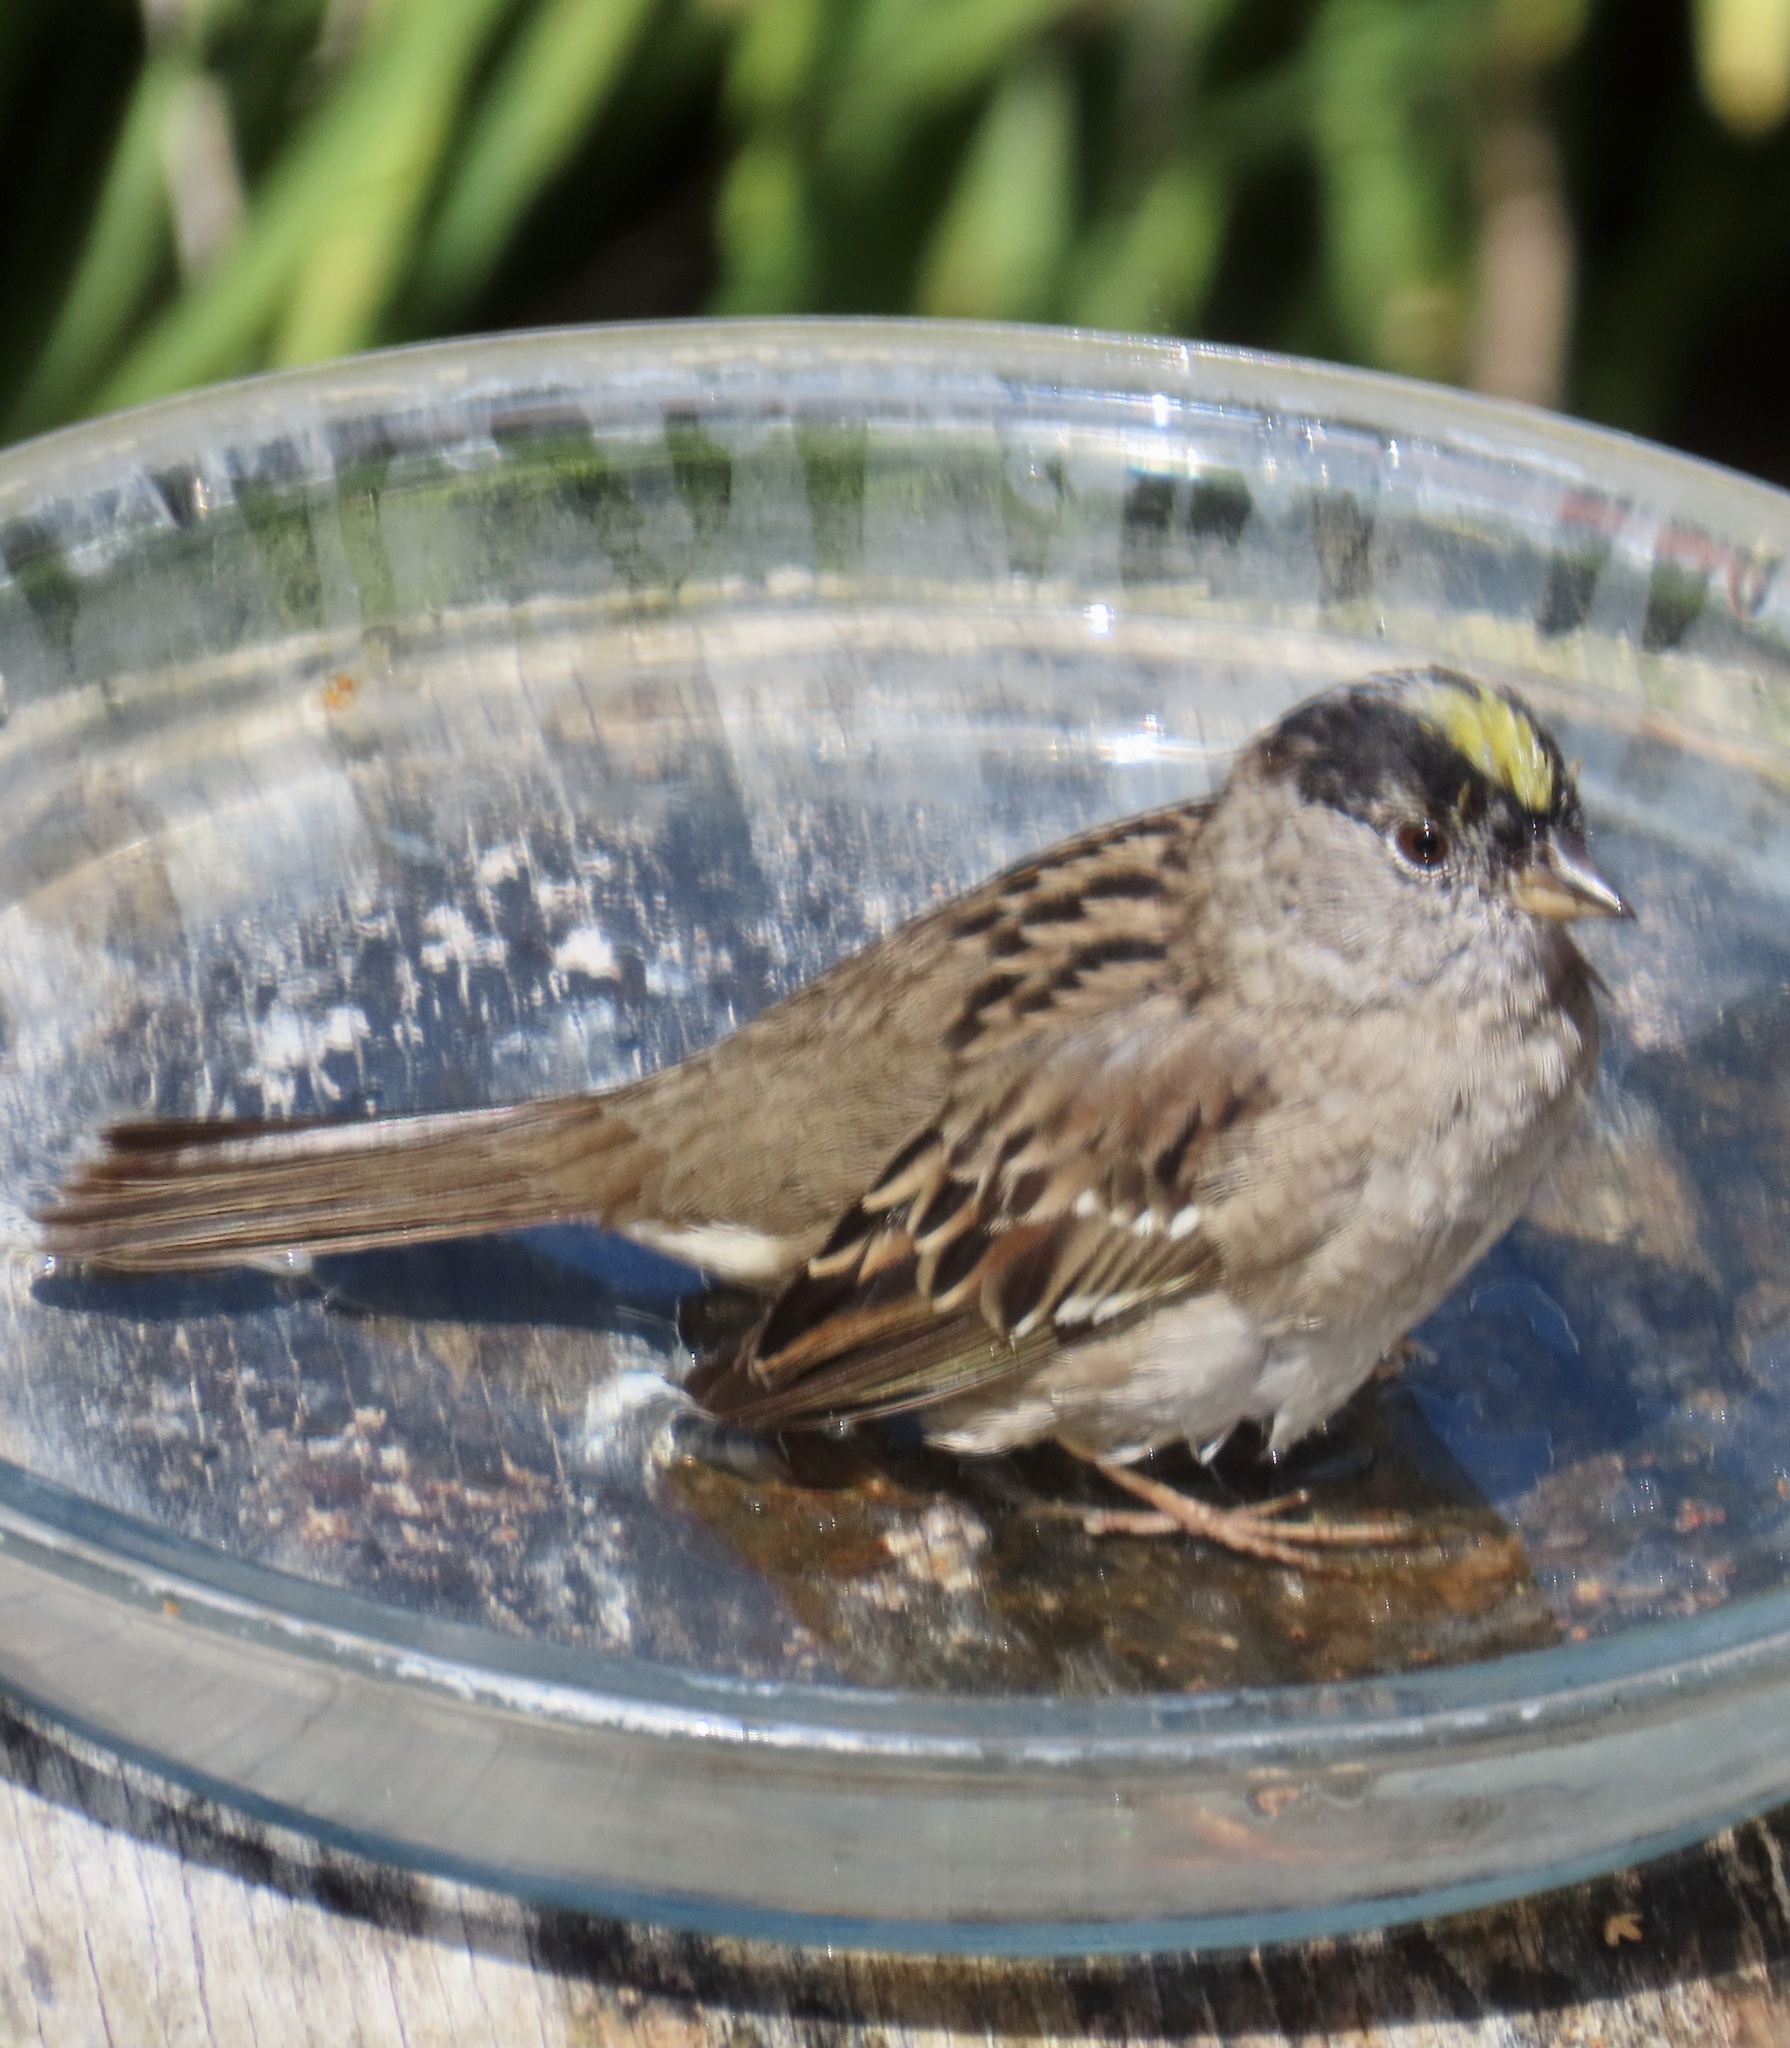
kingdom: Animalia
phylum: Chordata
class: Aves
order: Passeriformes
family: Passerellidae
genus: Zonotrichia
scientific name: Zonotrichia atricapilla
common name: Golden-crowned sparrow
